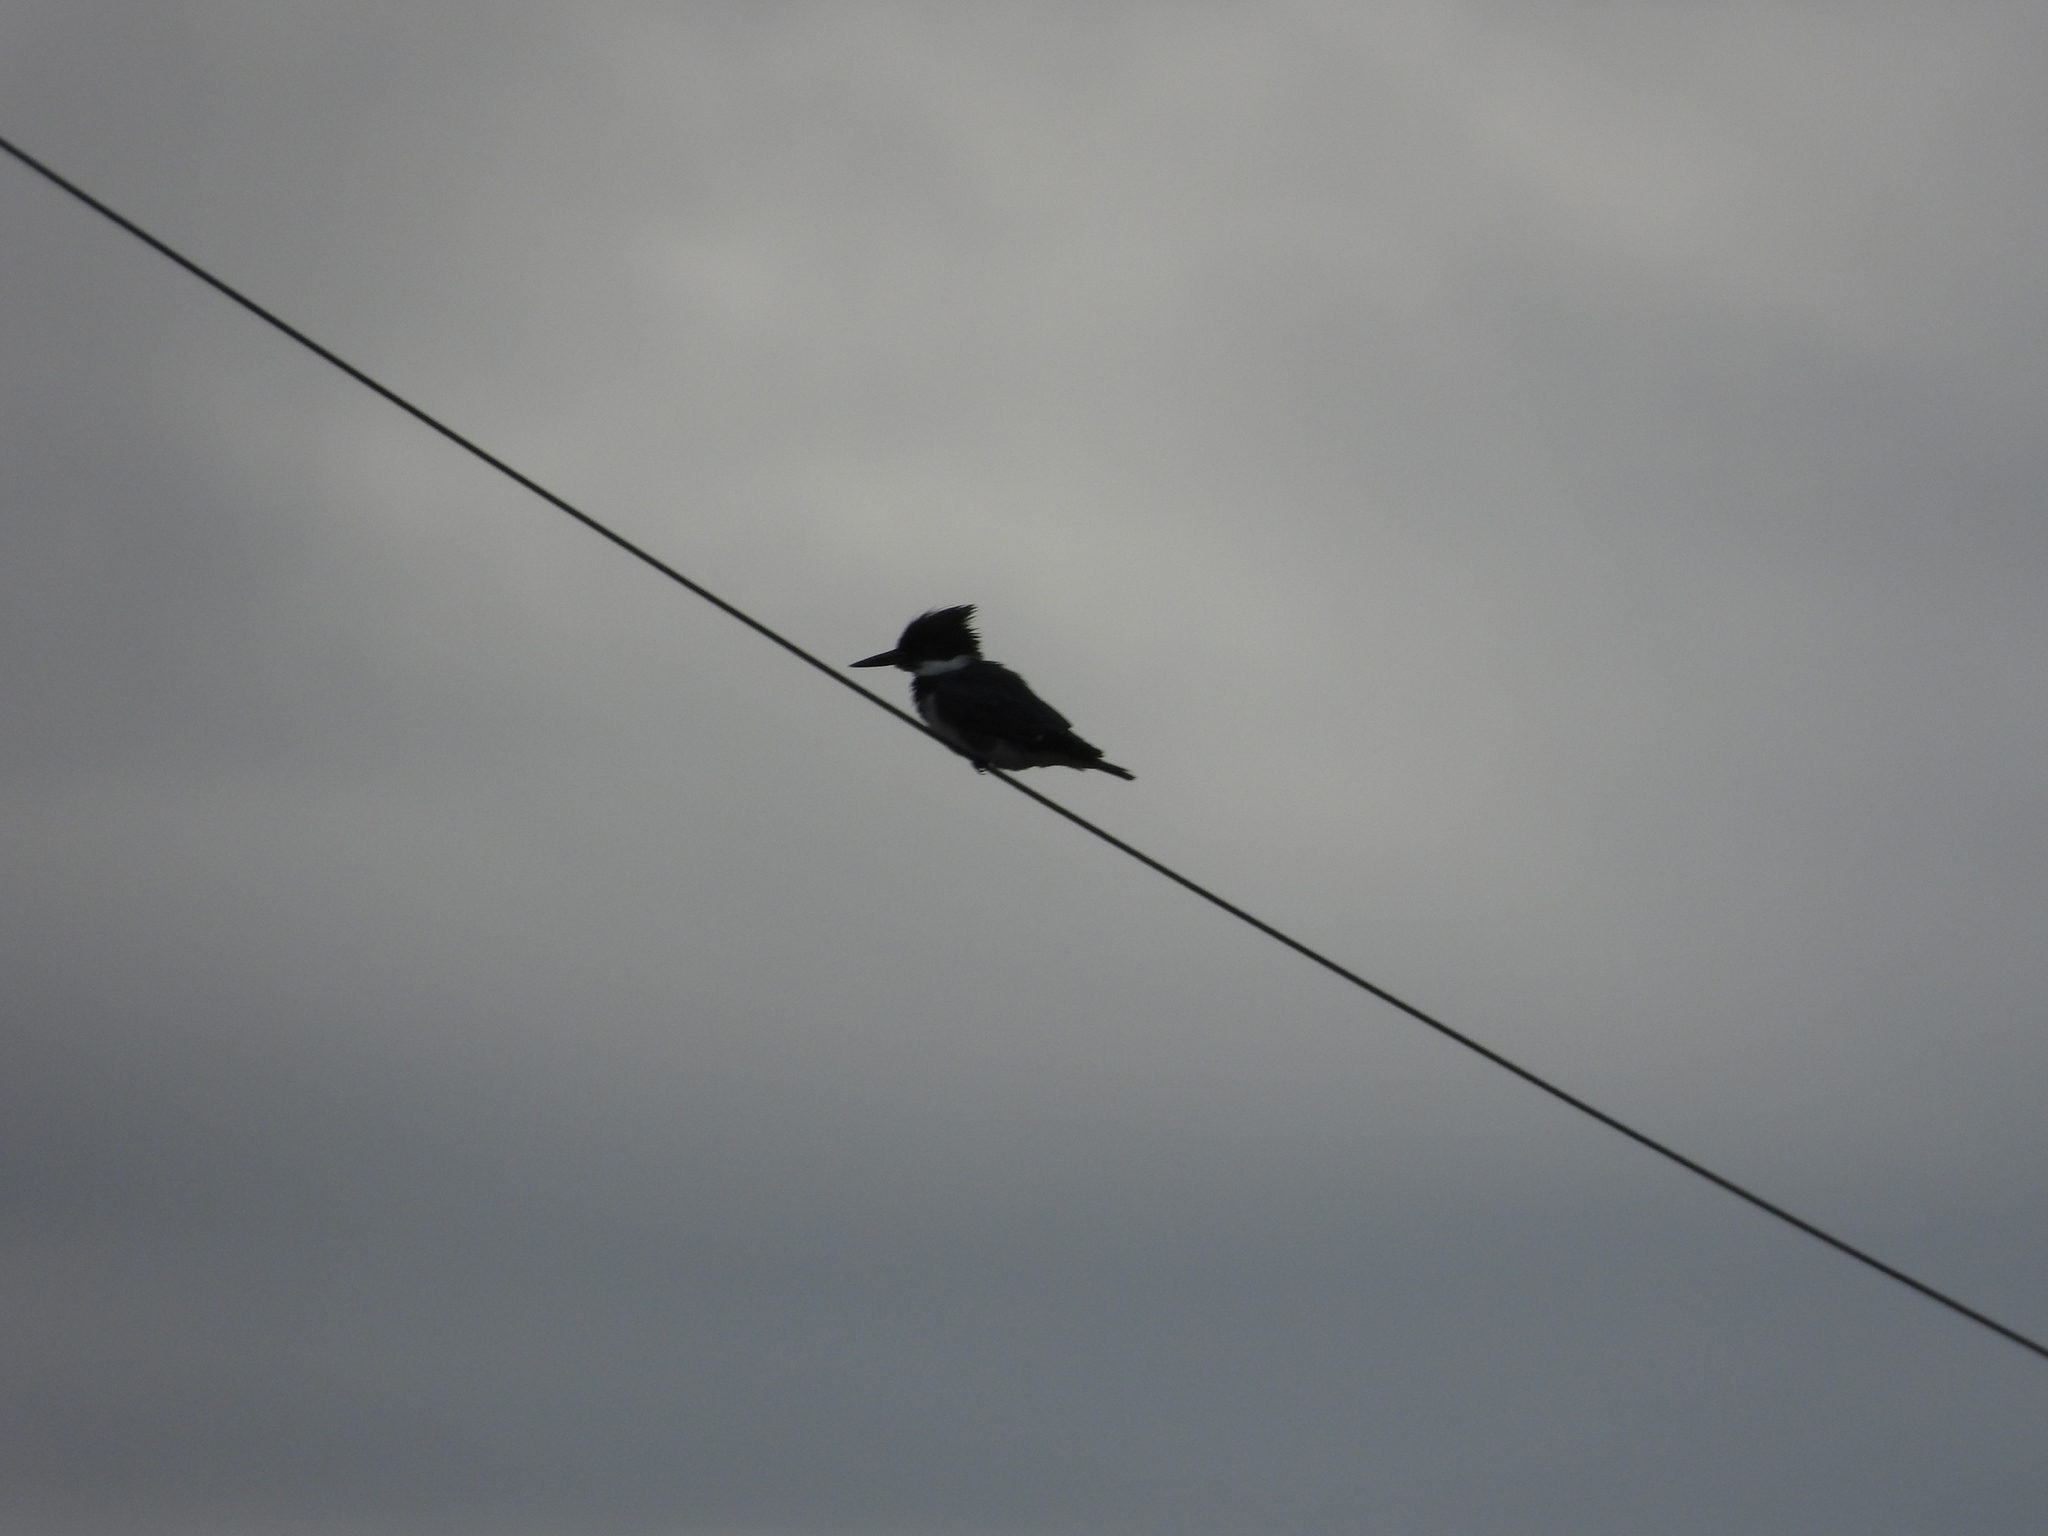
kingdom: Animalia
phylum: Chordata
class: Aves
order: Coraciiformes
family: Alcedinidae
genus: Megaceryle
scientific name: Megaceryle alcyon
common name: Belted kingfisher
